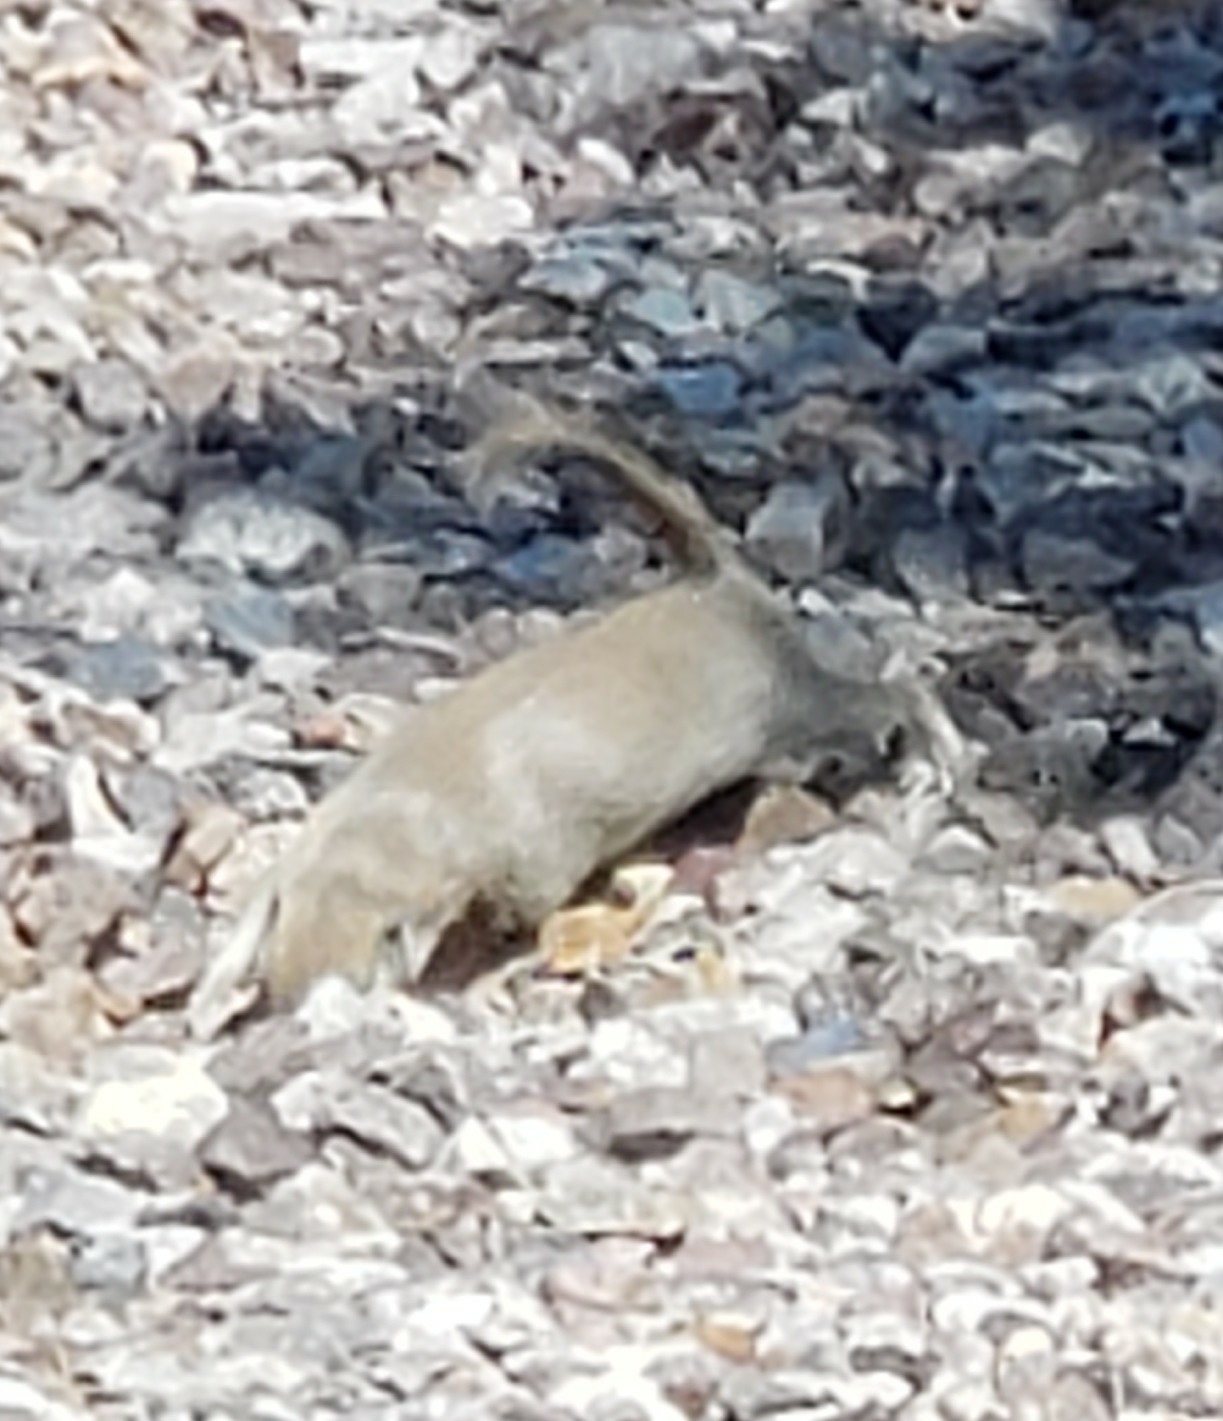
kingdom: Animalia
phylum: Chordata
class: Mammalia
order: Rodentia
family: Sciuridae
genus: Xerospermophilus
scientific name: Xerospermophilus tereticaudus
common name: Round-tailed ground squirrel
